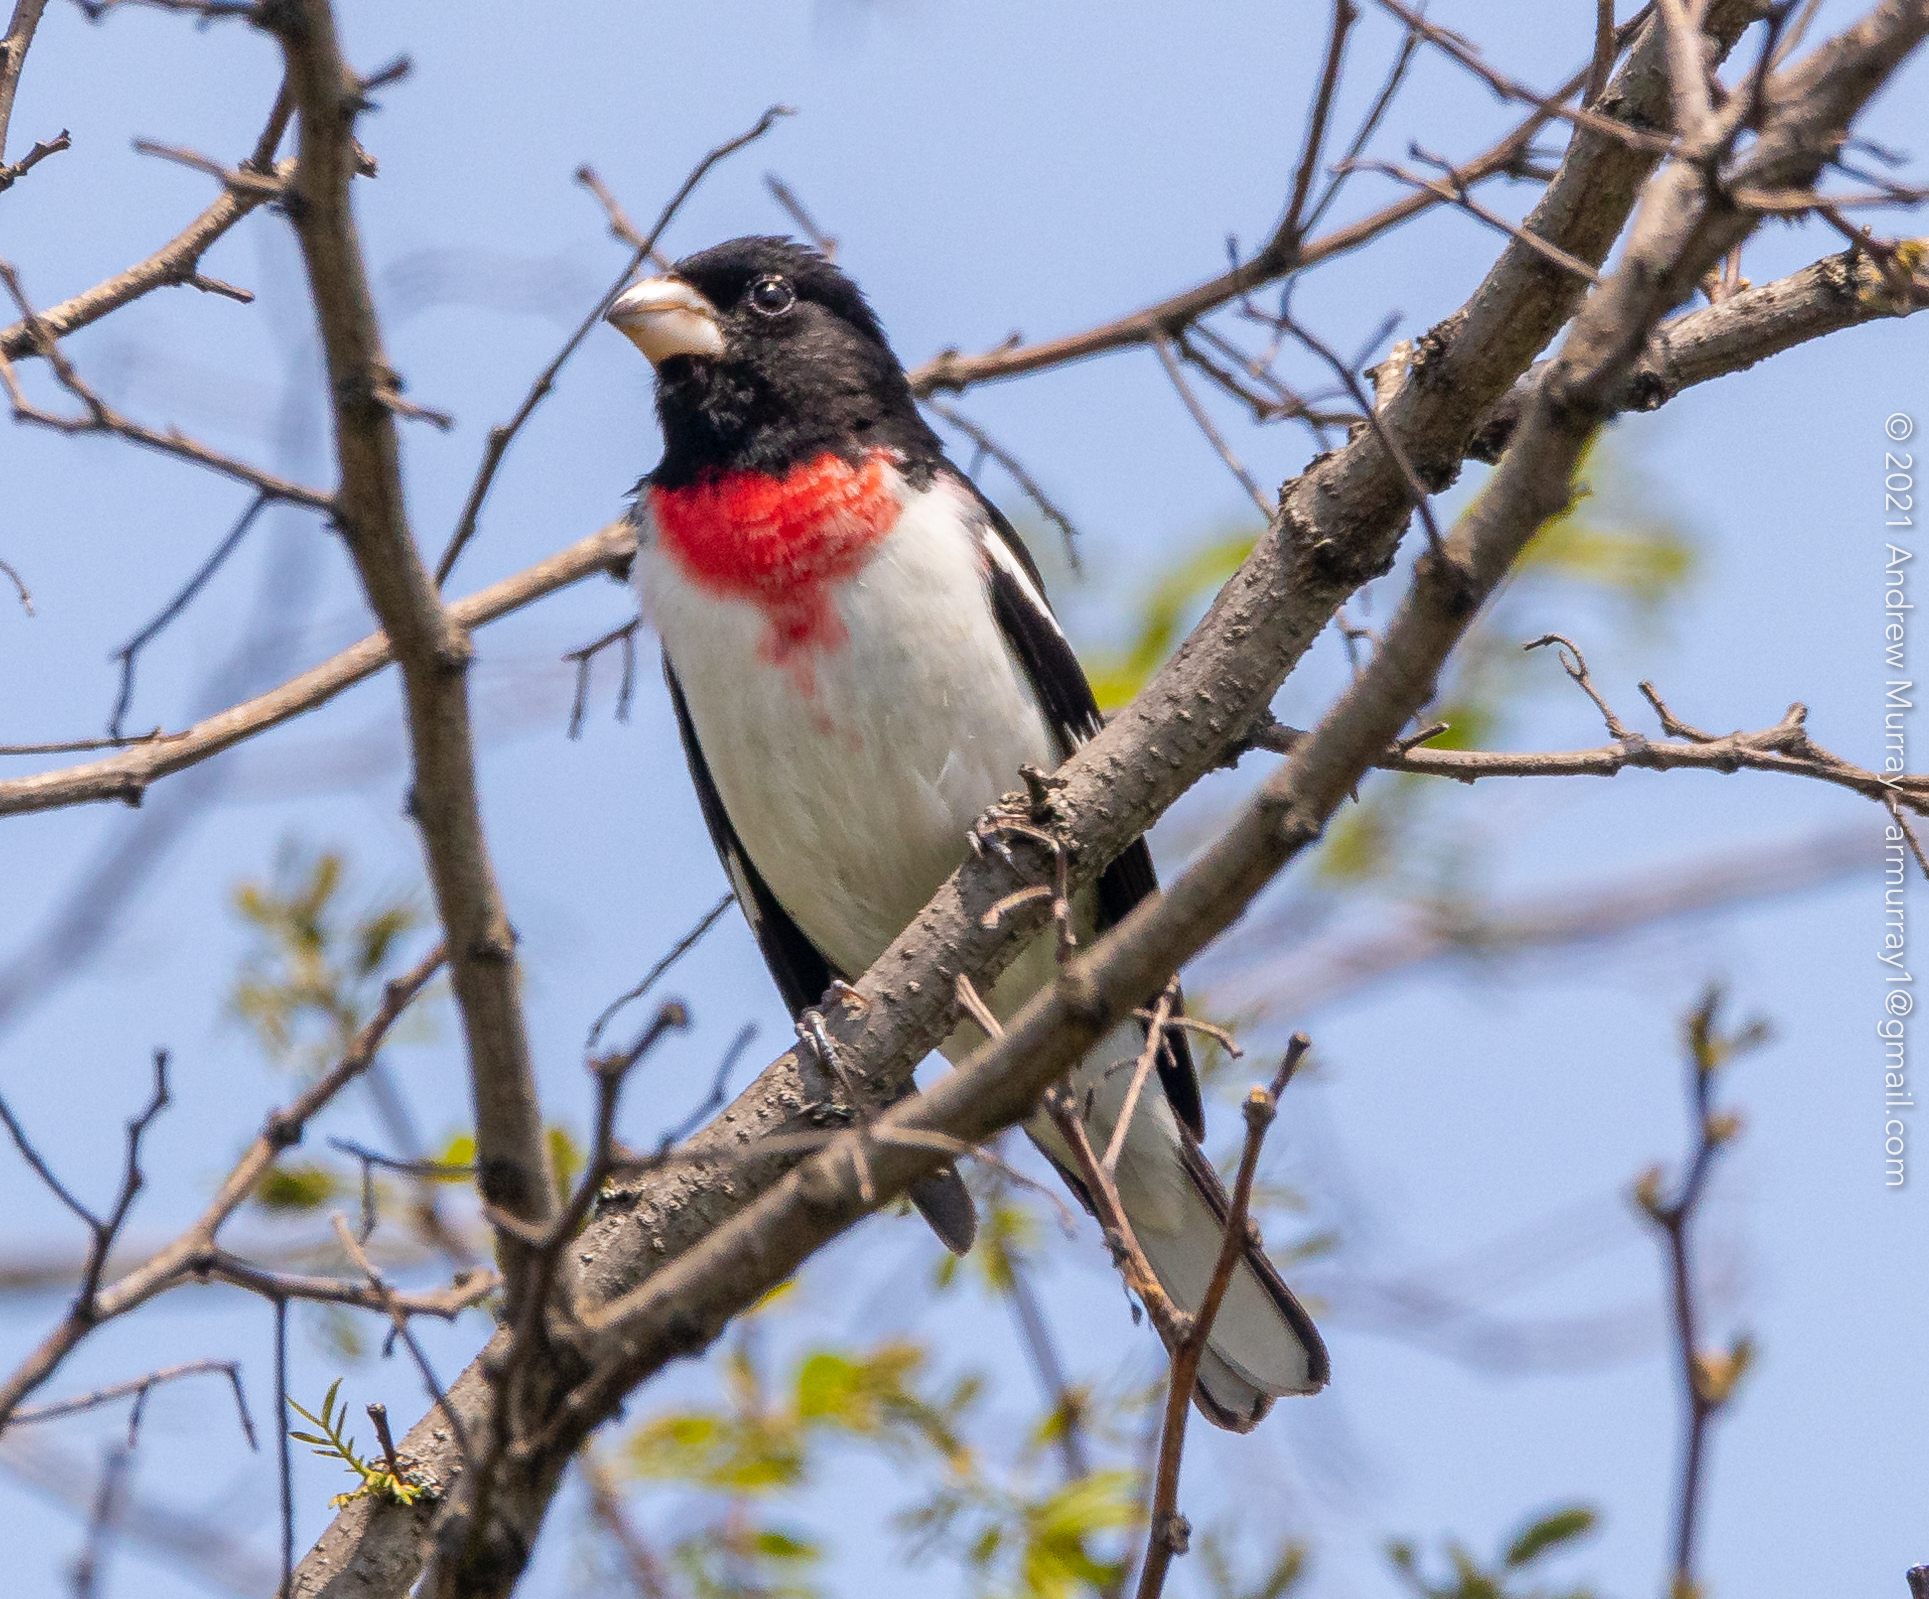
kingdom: Animalia
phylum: Chordata
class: Aves
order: Passeriformes
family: Cardinalidae
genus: Pheucticus
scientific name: Pheucticus ludovicianus
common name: Rose-breasted grosbeak
